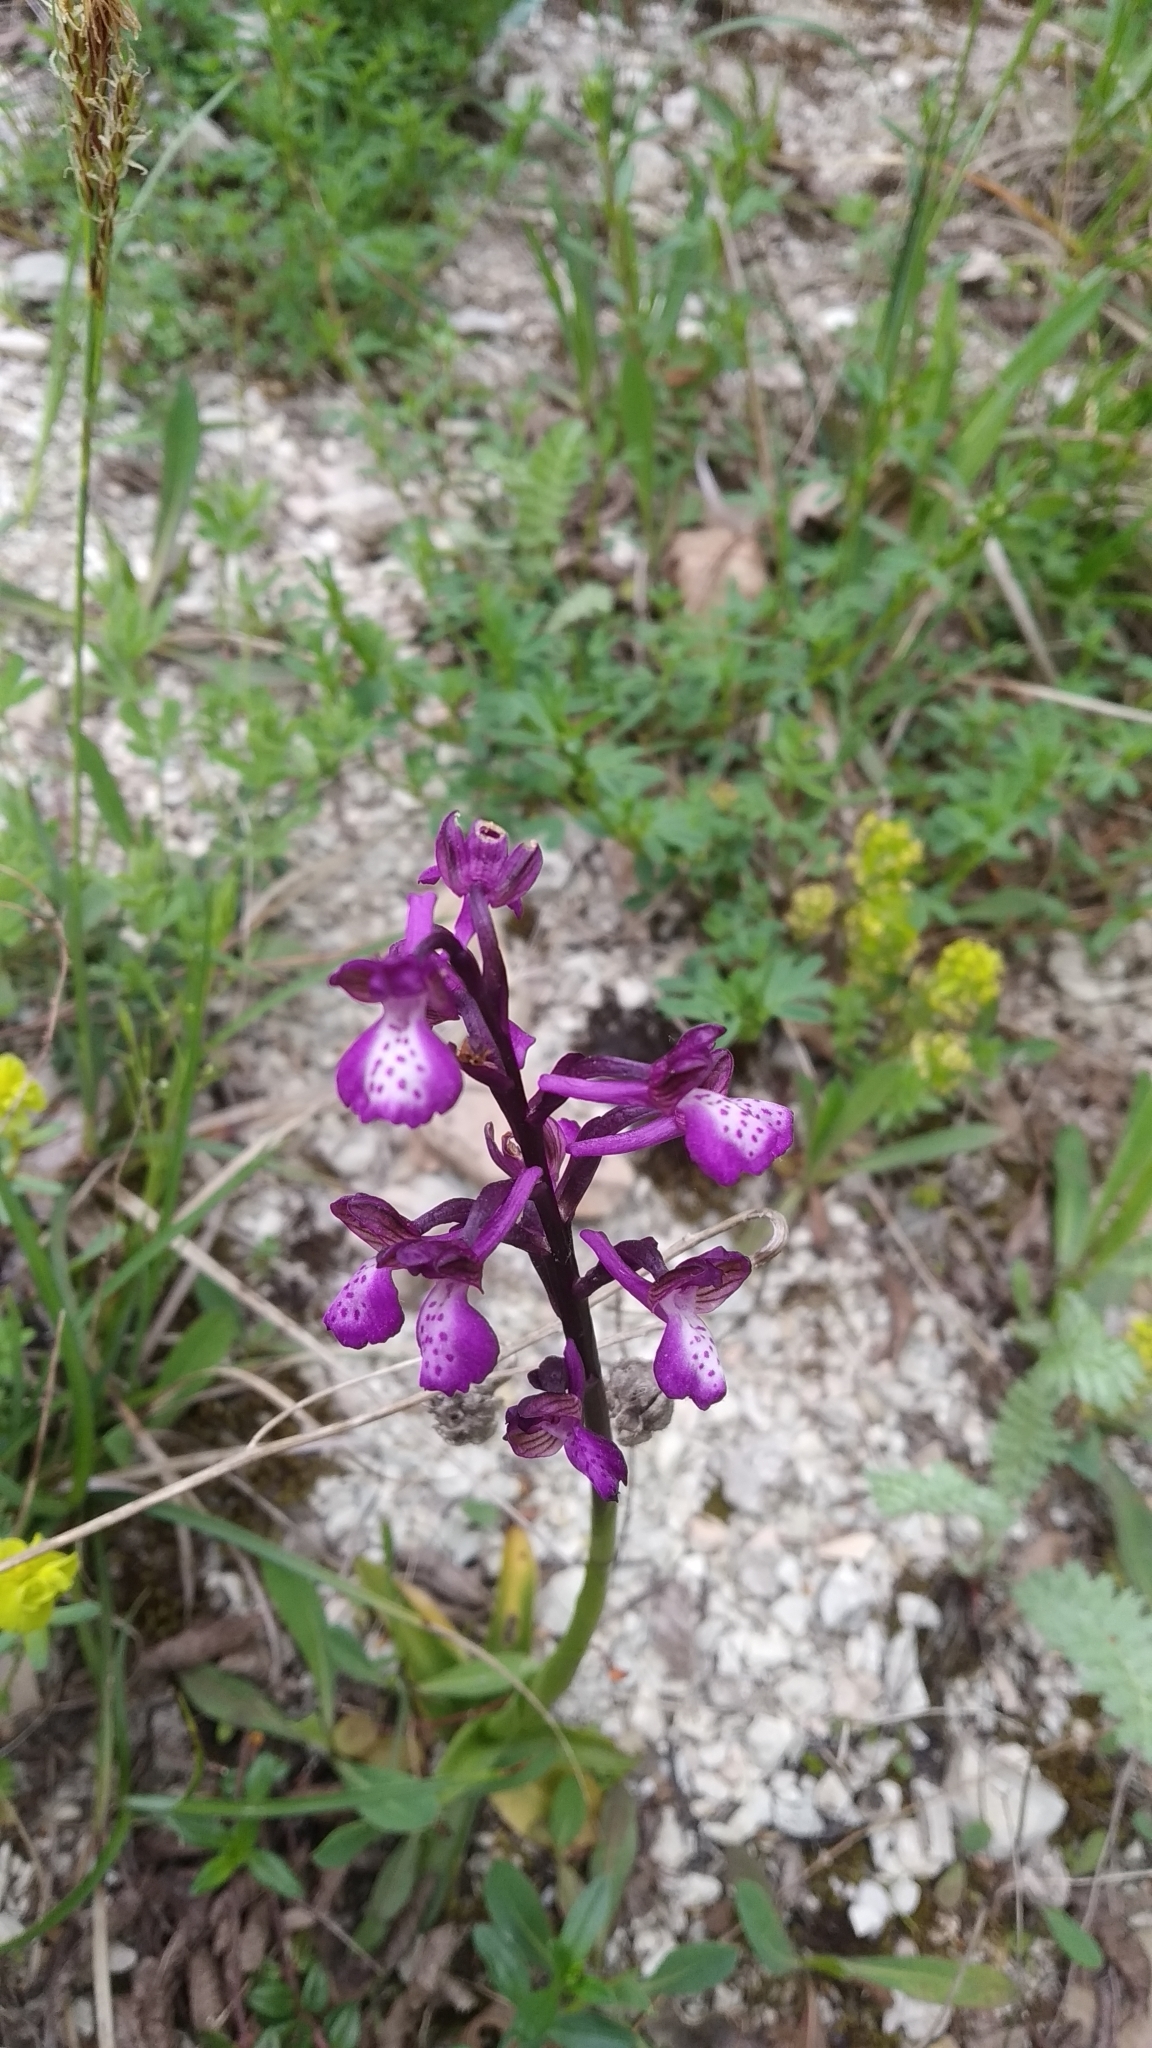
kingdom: Plantae
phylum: Tracheophyta
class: Liliopsida
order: Asparagales
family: Orchidaceae
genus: Anacamptis
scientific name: Anacamptis morio
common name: Green-winged orchid
